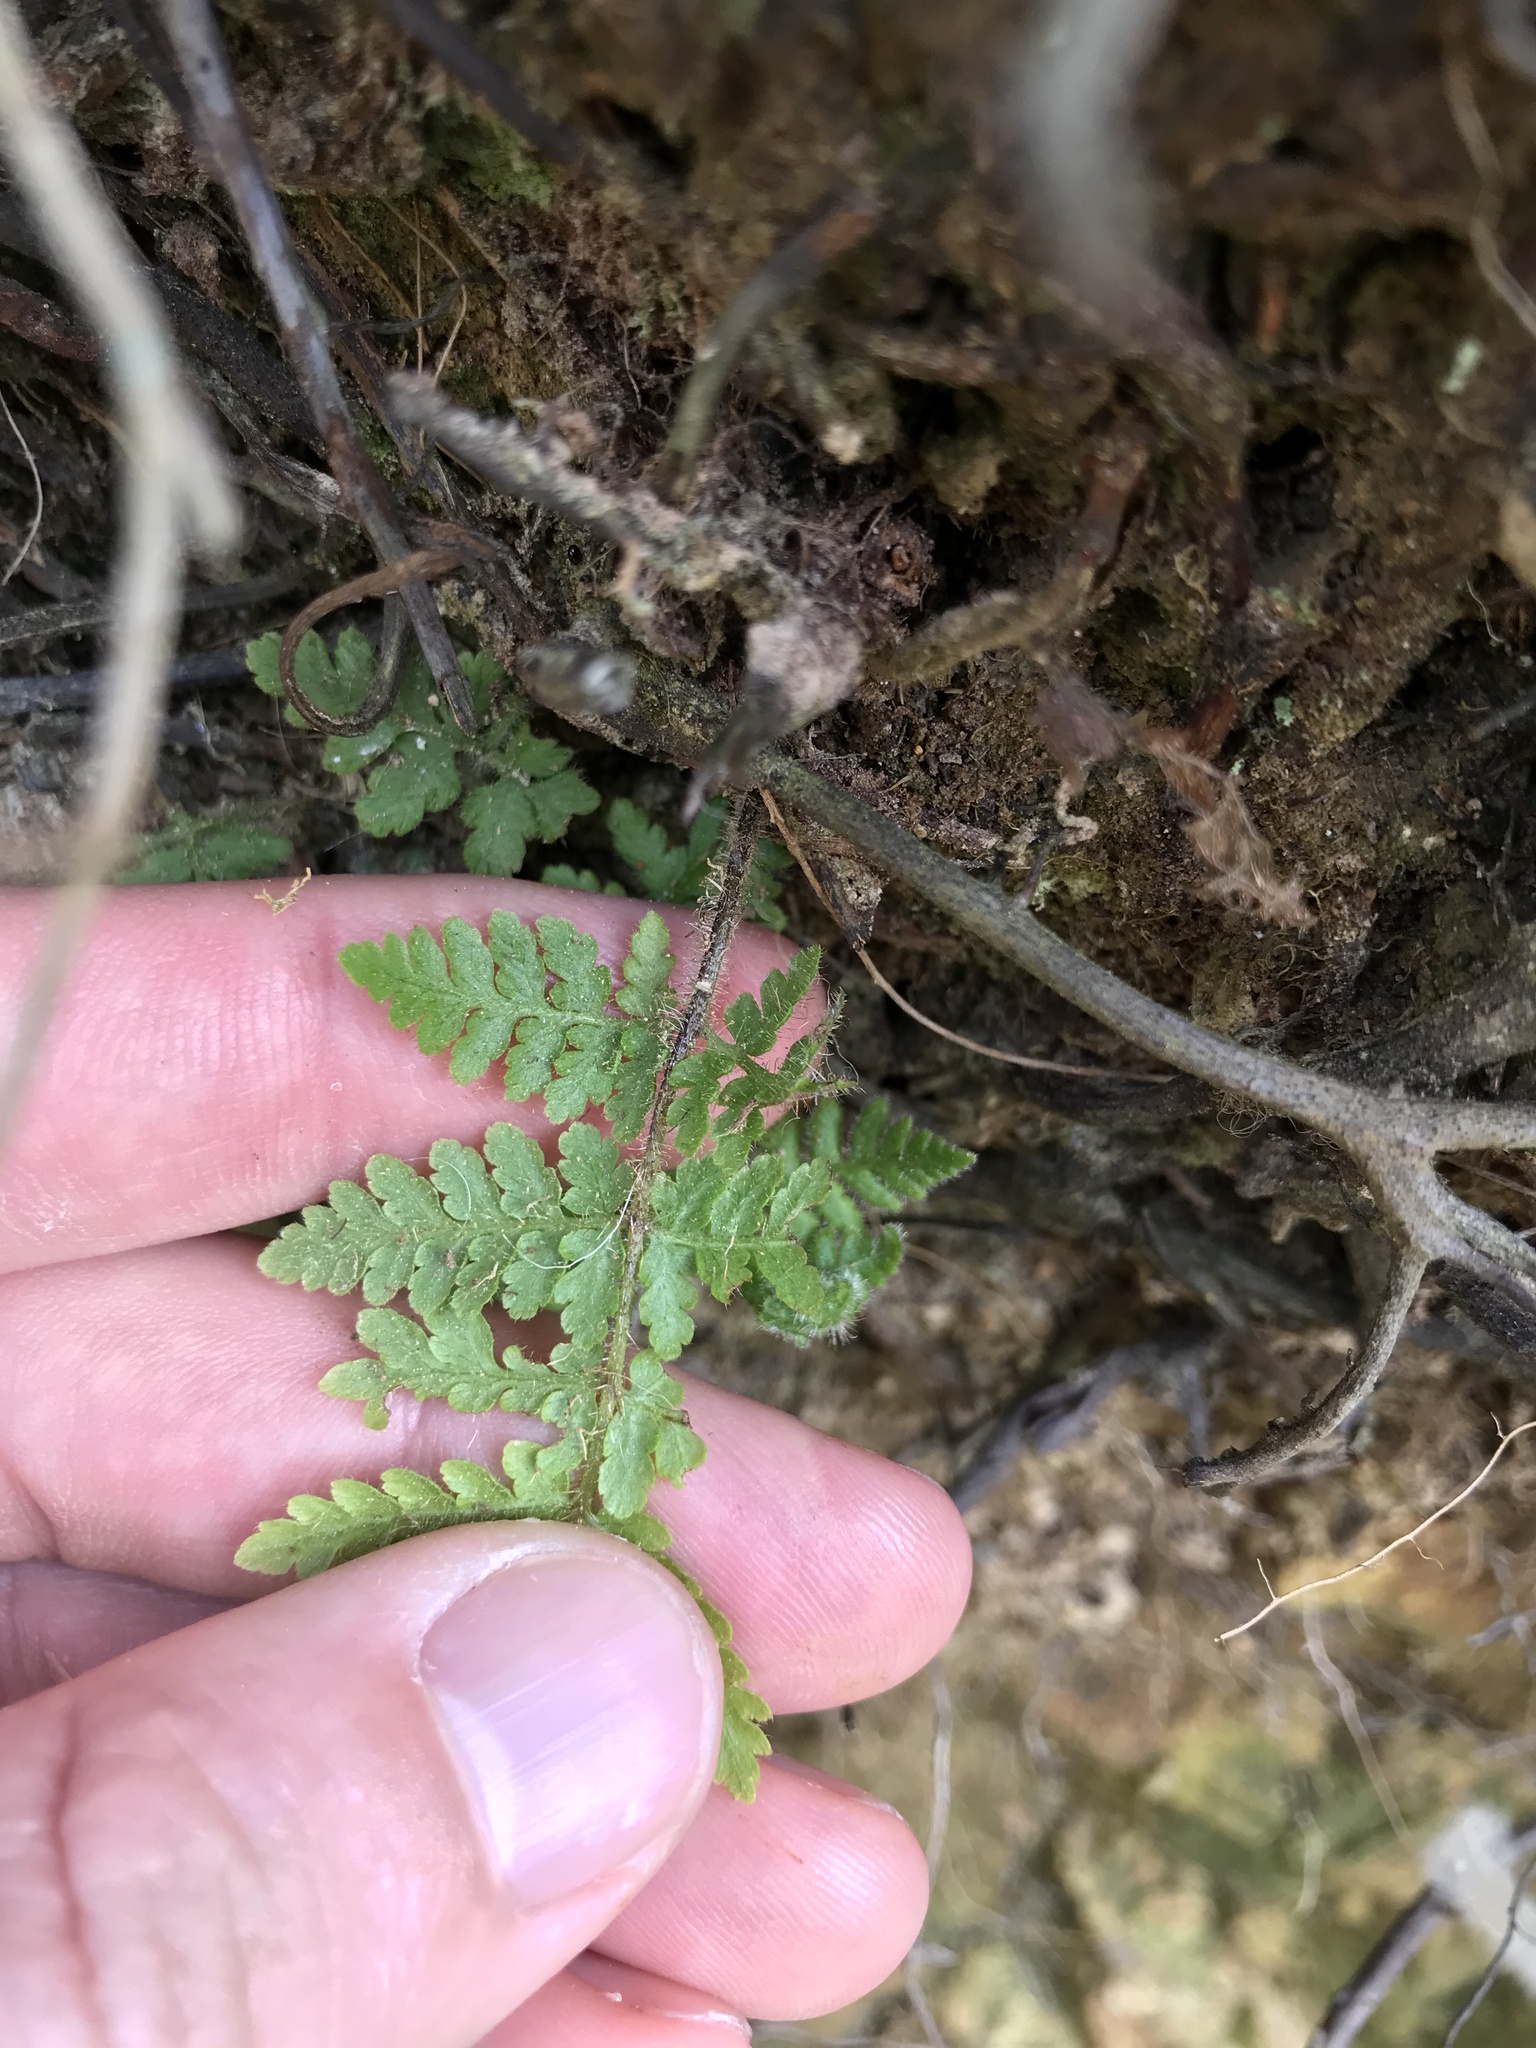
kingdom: Plantae
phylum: Tracheophyta
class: Polypodiopsida
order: Polypodiales
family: Dennstaedtiaceae
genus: Hypolepis
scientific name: Hypolepis
